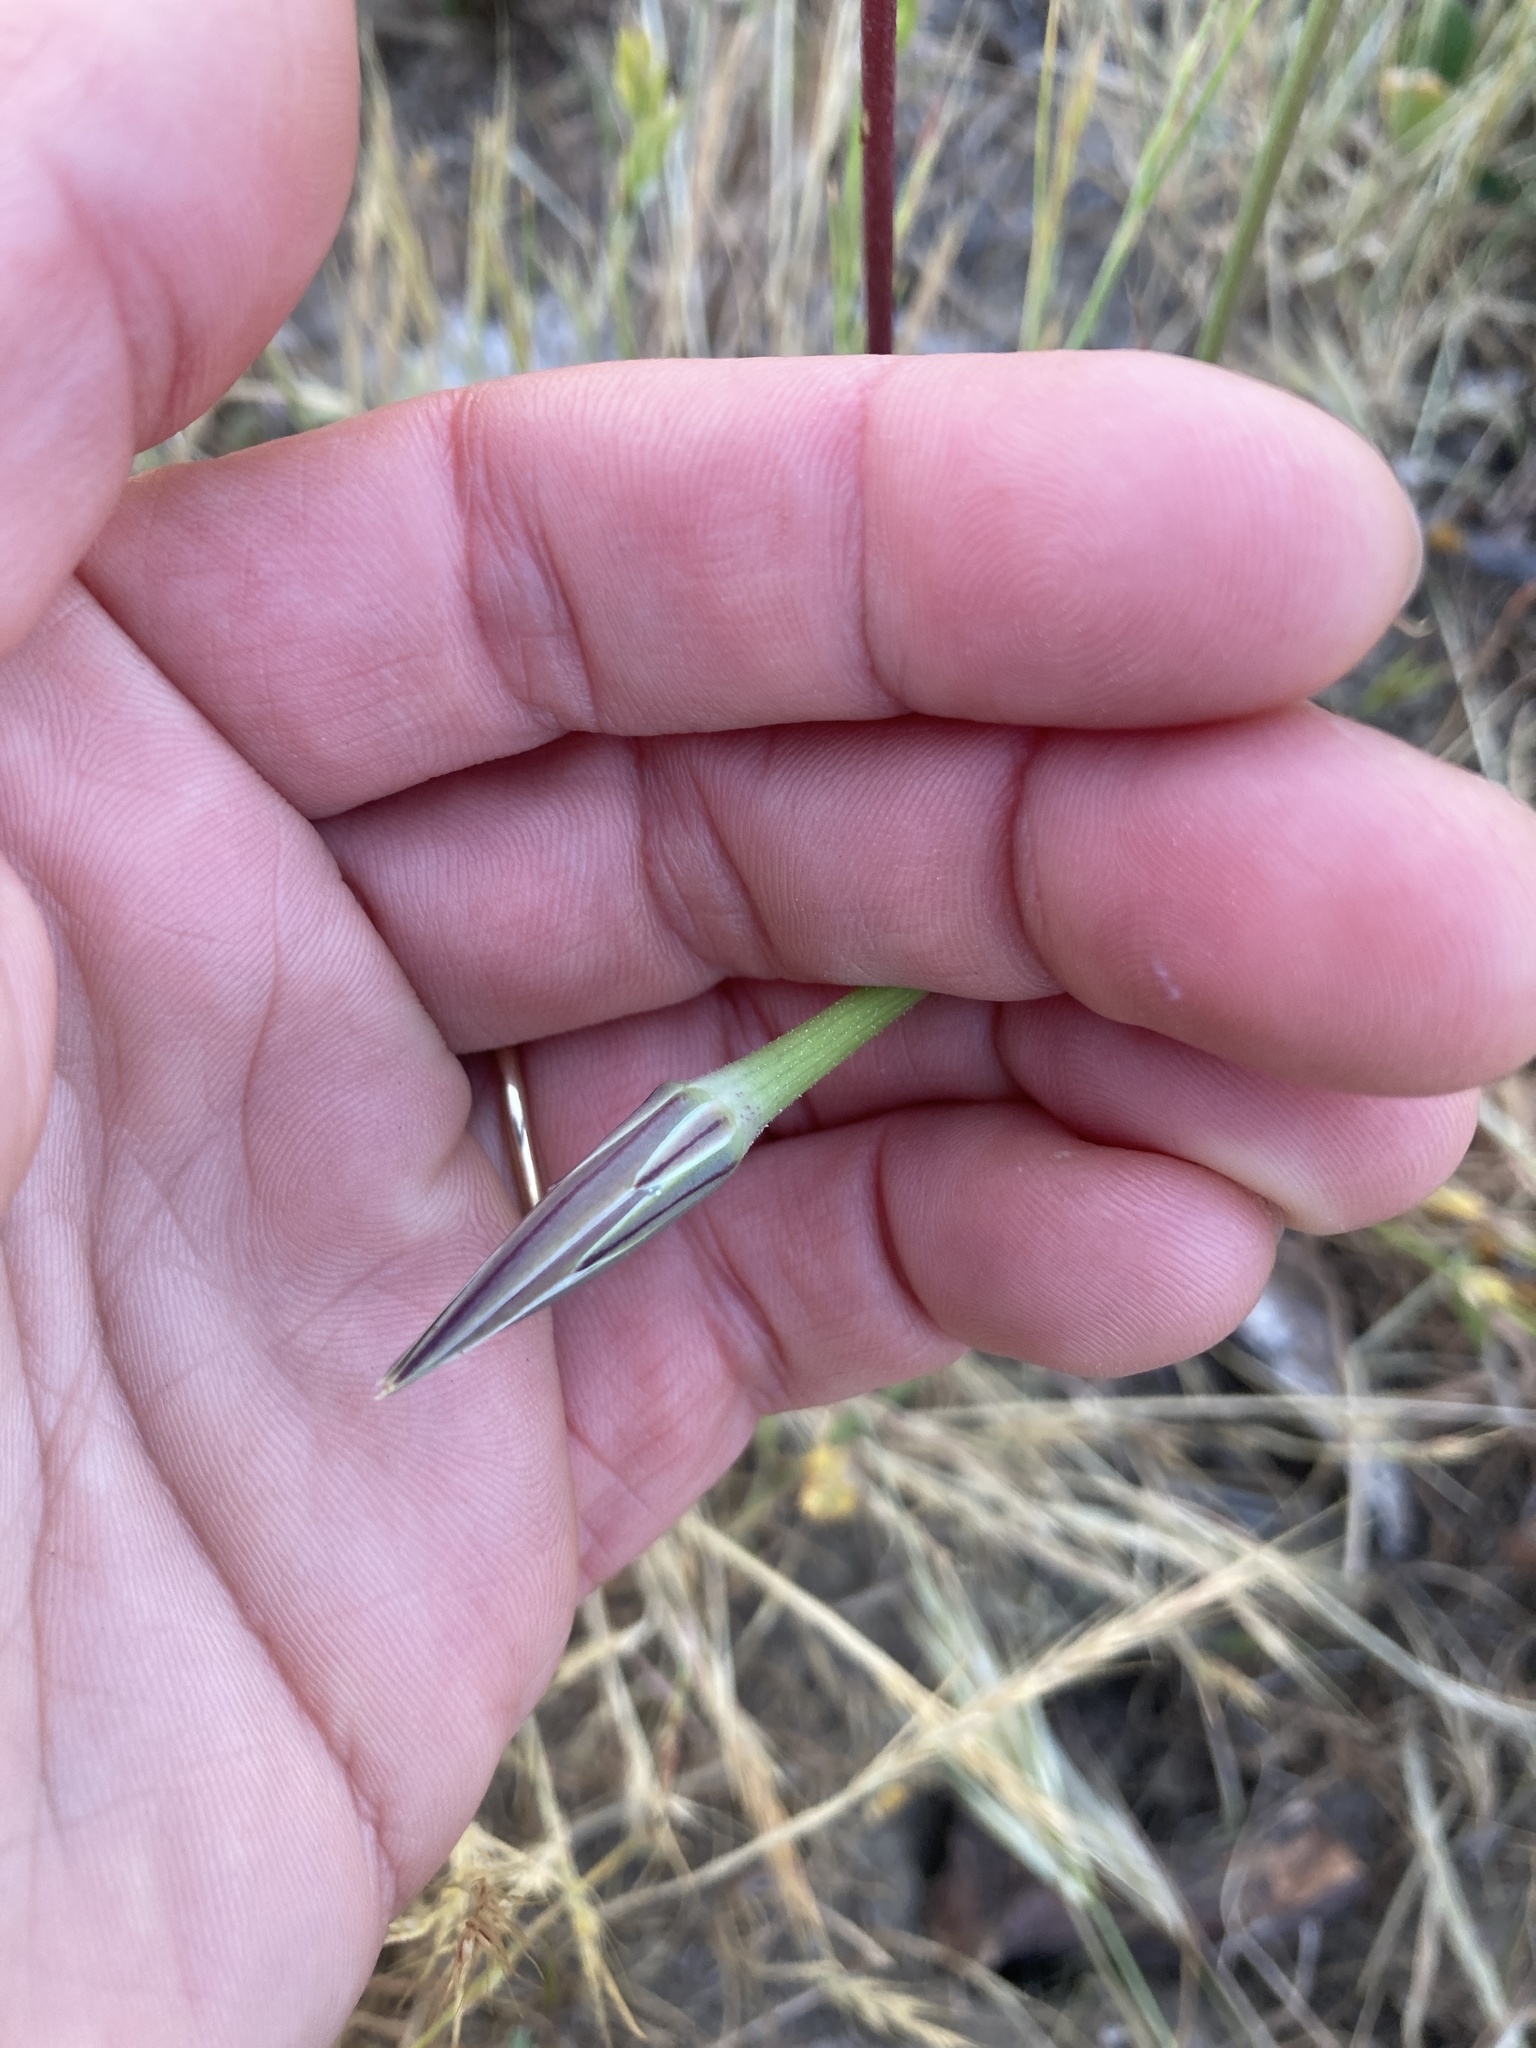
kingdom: Plantae
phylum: Tracheophyta
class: Magnoliopsida
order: Asterales
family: Asteraceae
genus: Microseris
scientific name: Microseris lindleyi
